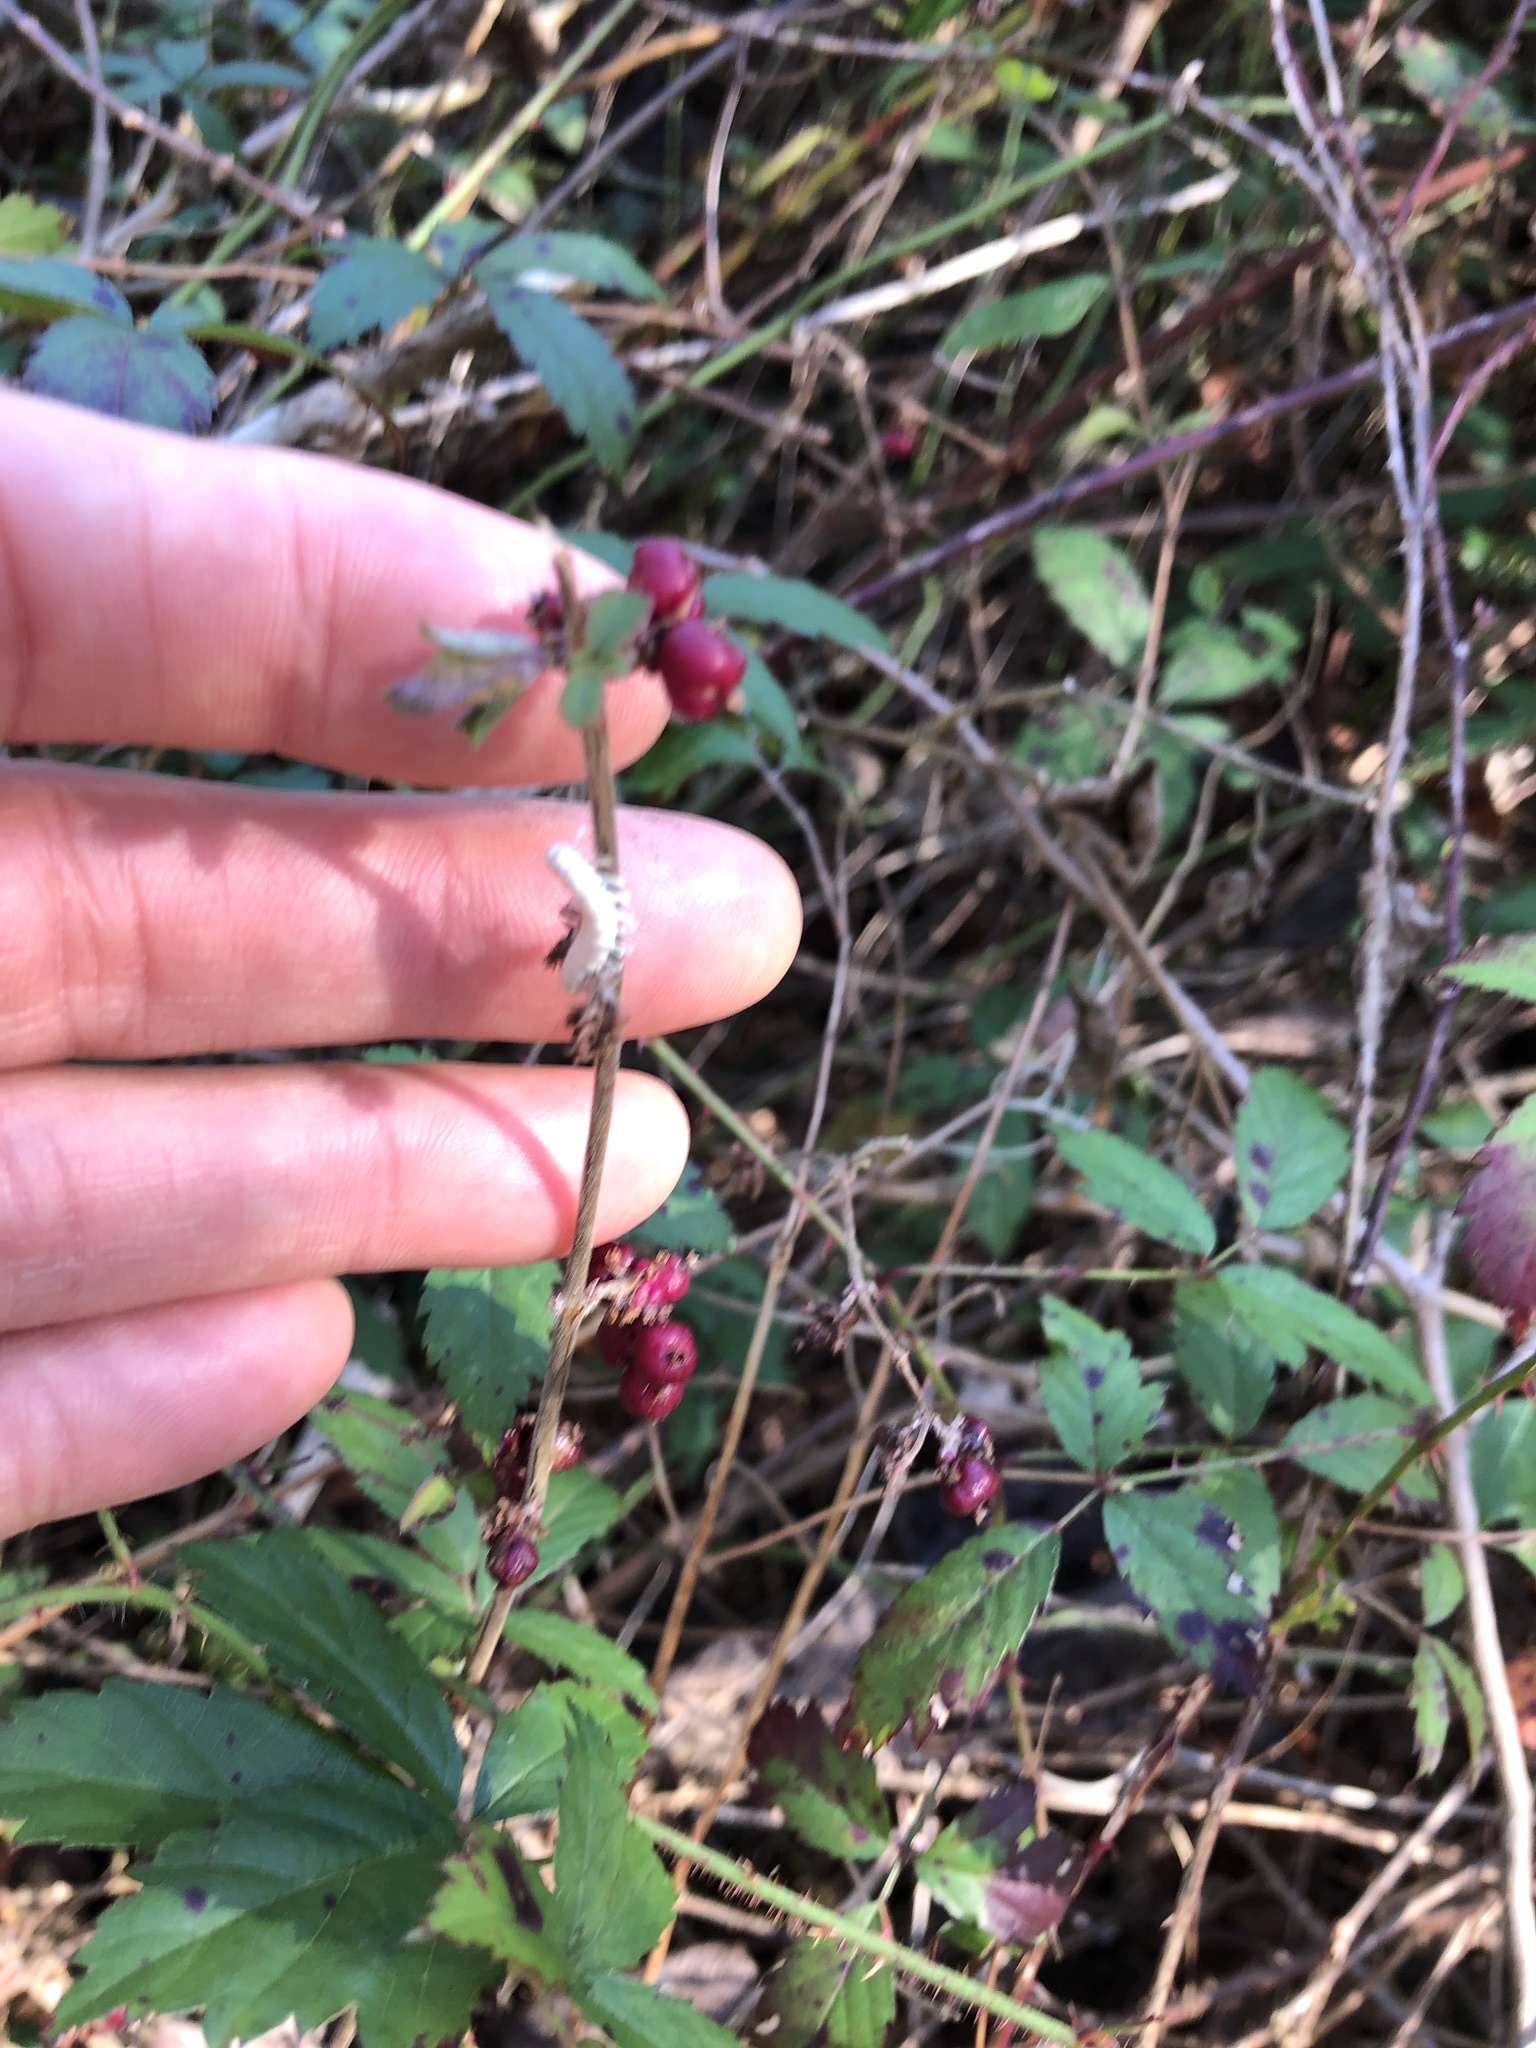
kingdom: Plantae
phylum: Tracheophyta
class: Magnoliopsida
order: Dipsacales
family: Caprifoliaceae
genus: Symphoricarpos
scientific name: Symphoricarpos orbiculatus
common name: Coralberry
